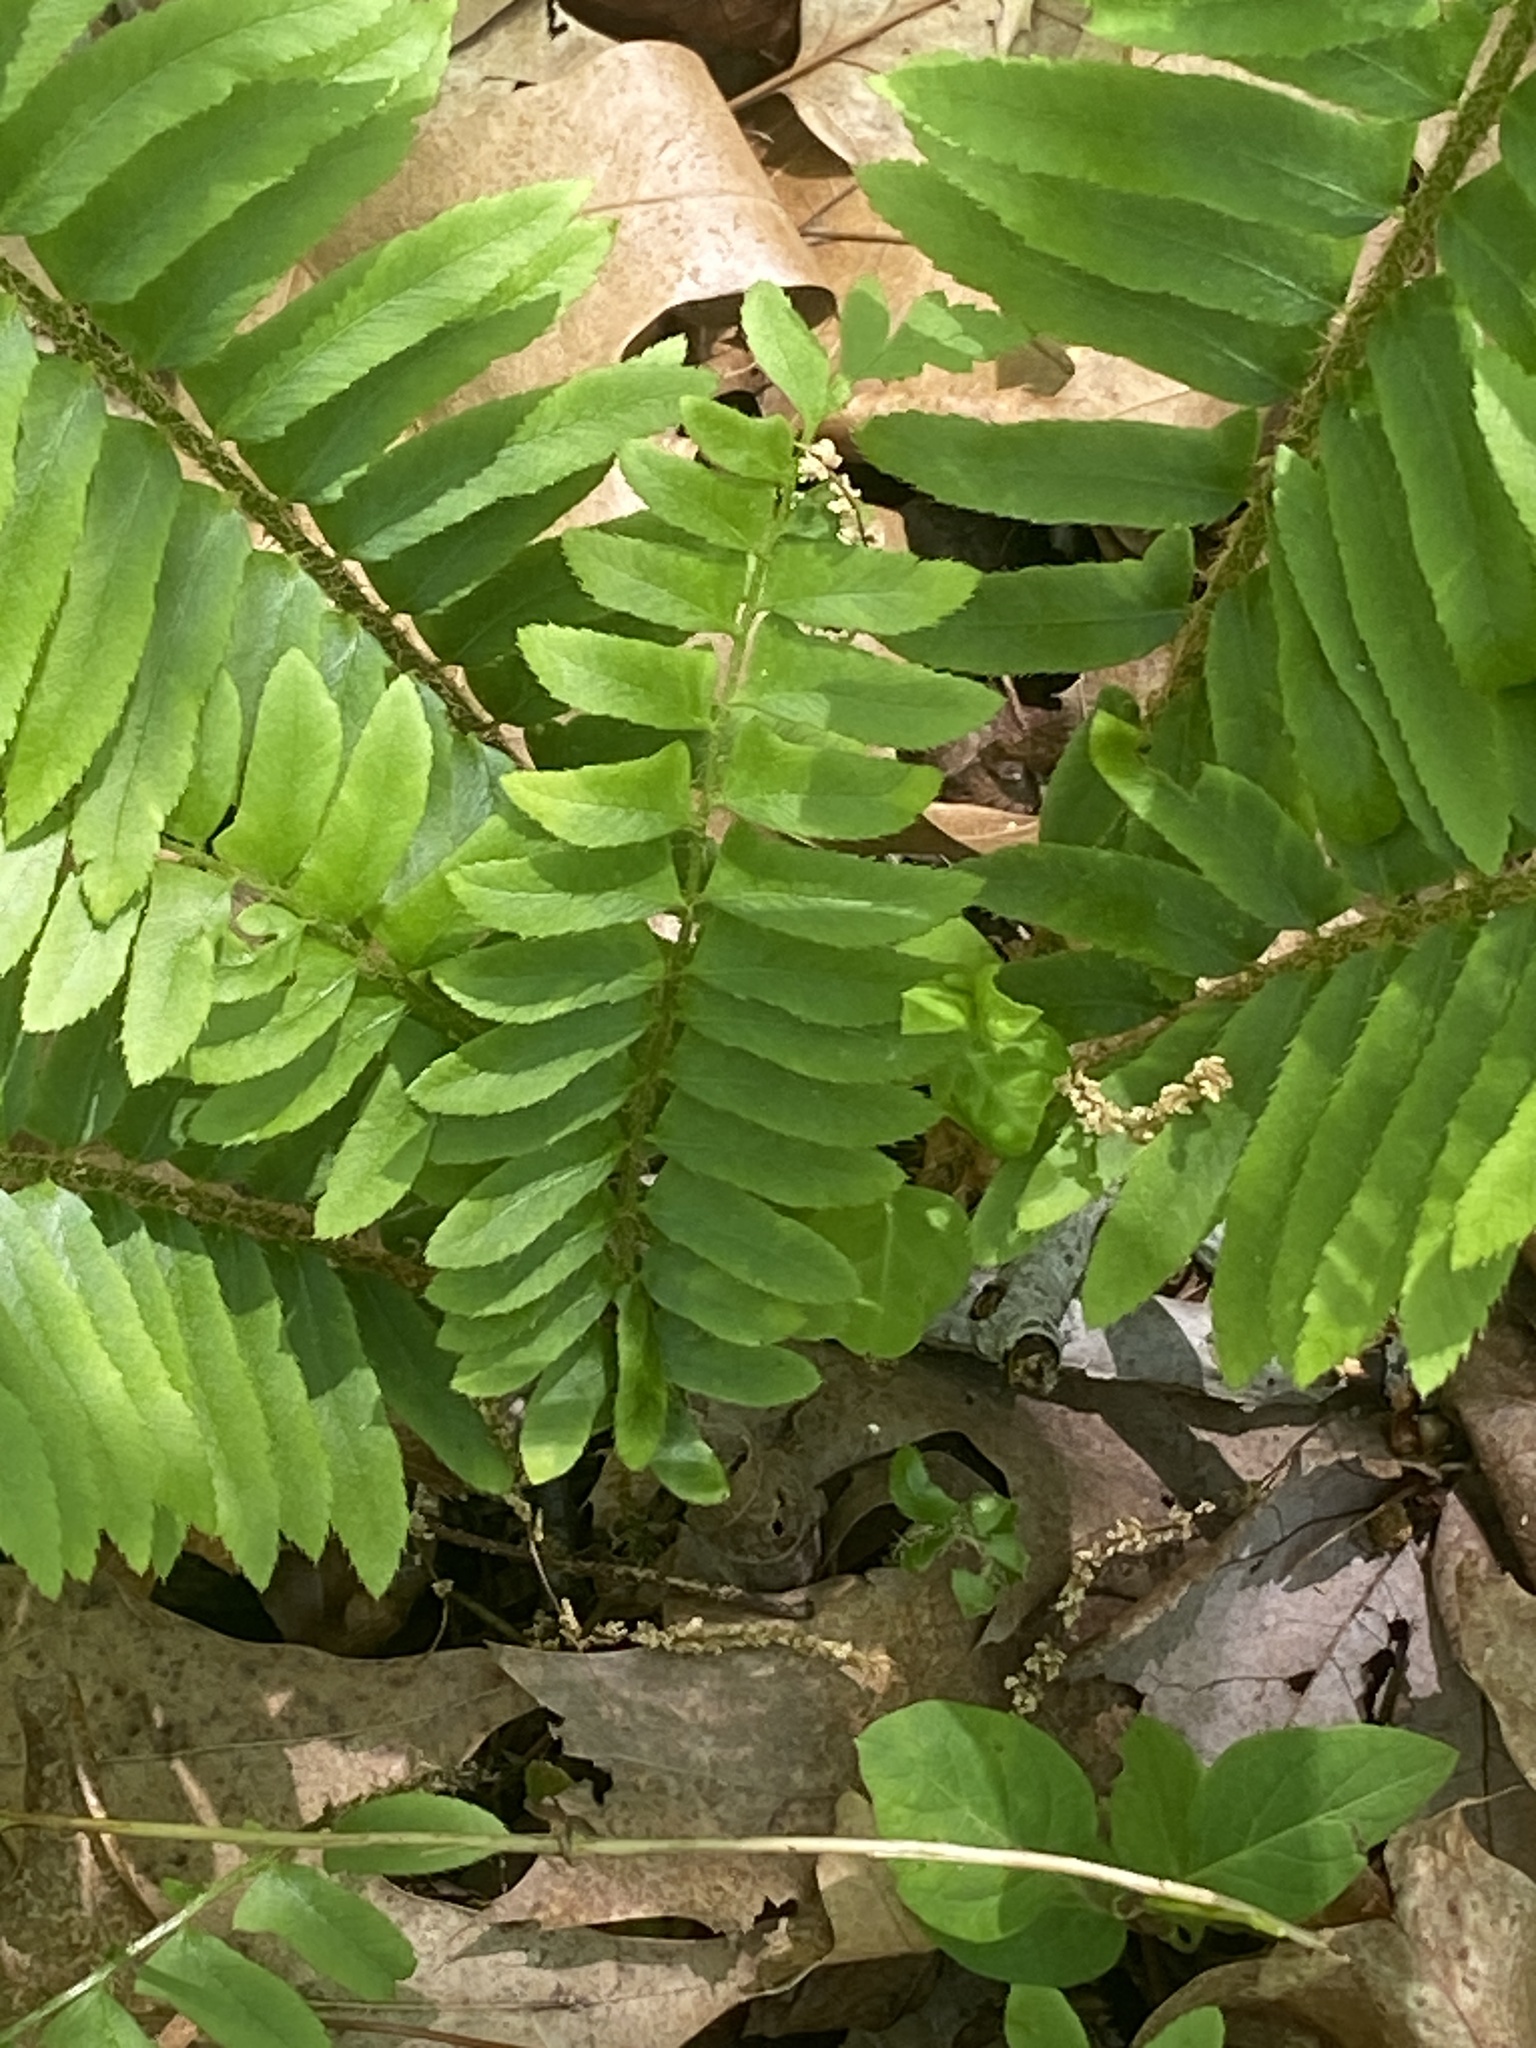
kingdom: Plantae
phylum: Tracheophyta
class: Polypodiopsida
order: Polypodiales
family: Dryopteridaceae
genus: Polystichum
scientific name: Polystichum acrostichoides
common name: Christmas fern
